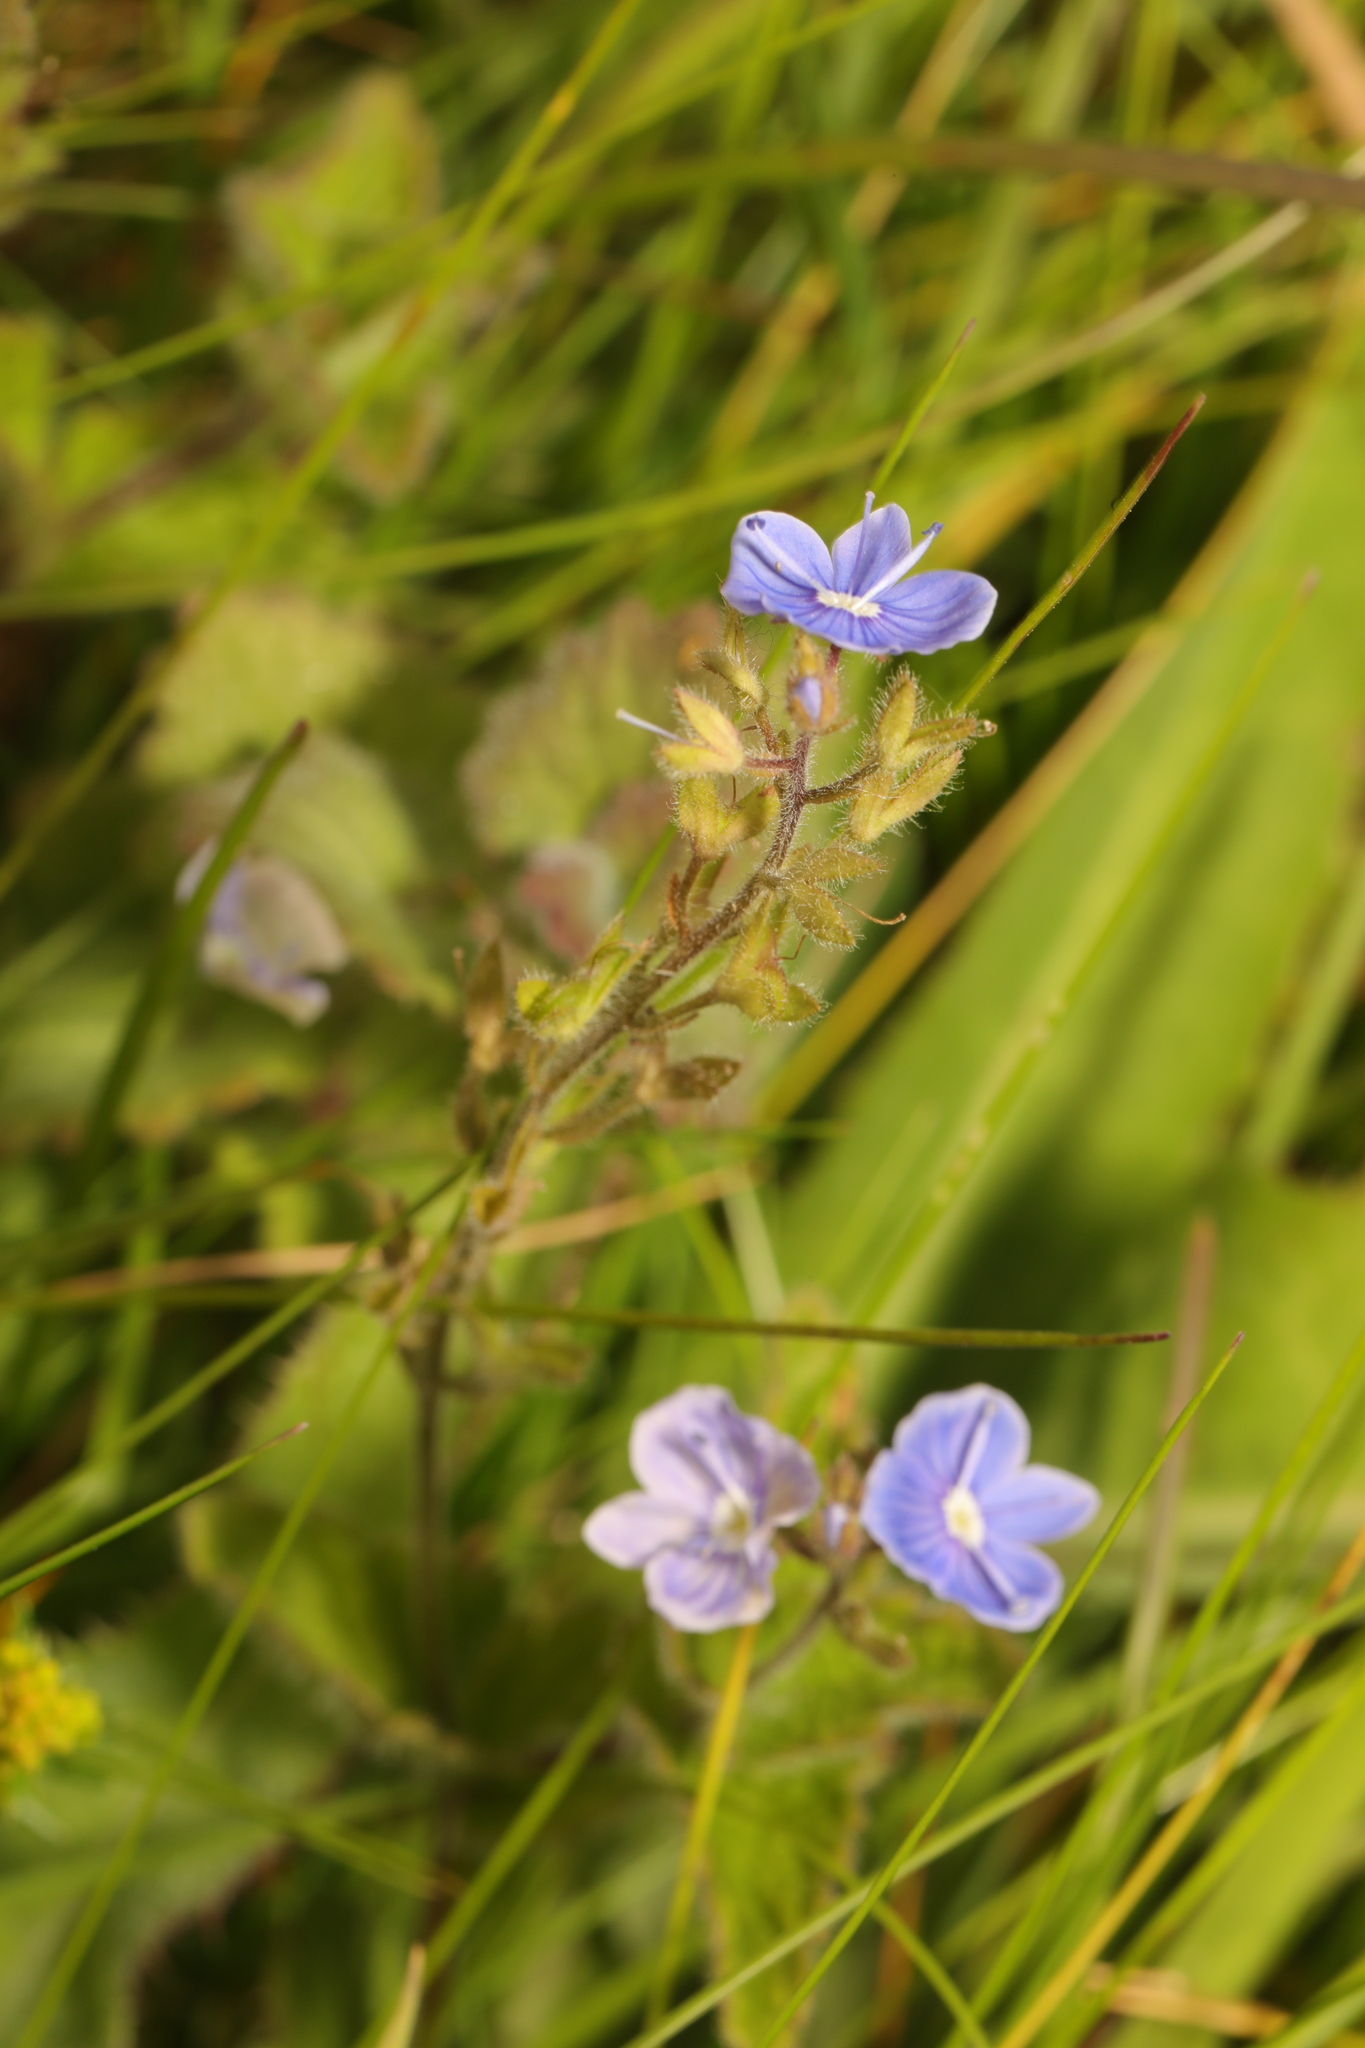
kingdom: Plantae
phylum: Tracheophyta
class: Magnoliopsida
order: Lamiales
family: Plantaginaceae
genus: Veronica
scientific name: Veronica chamaedrys
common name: Germander speedwell
